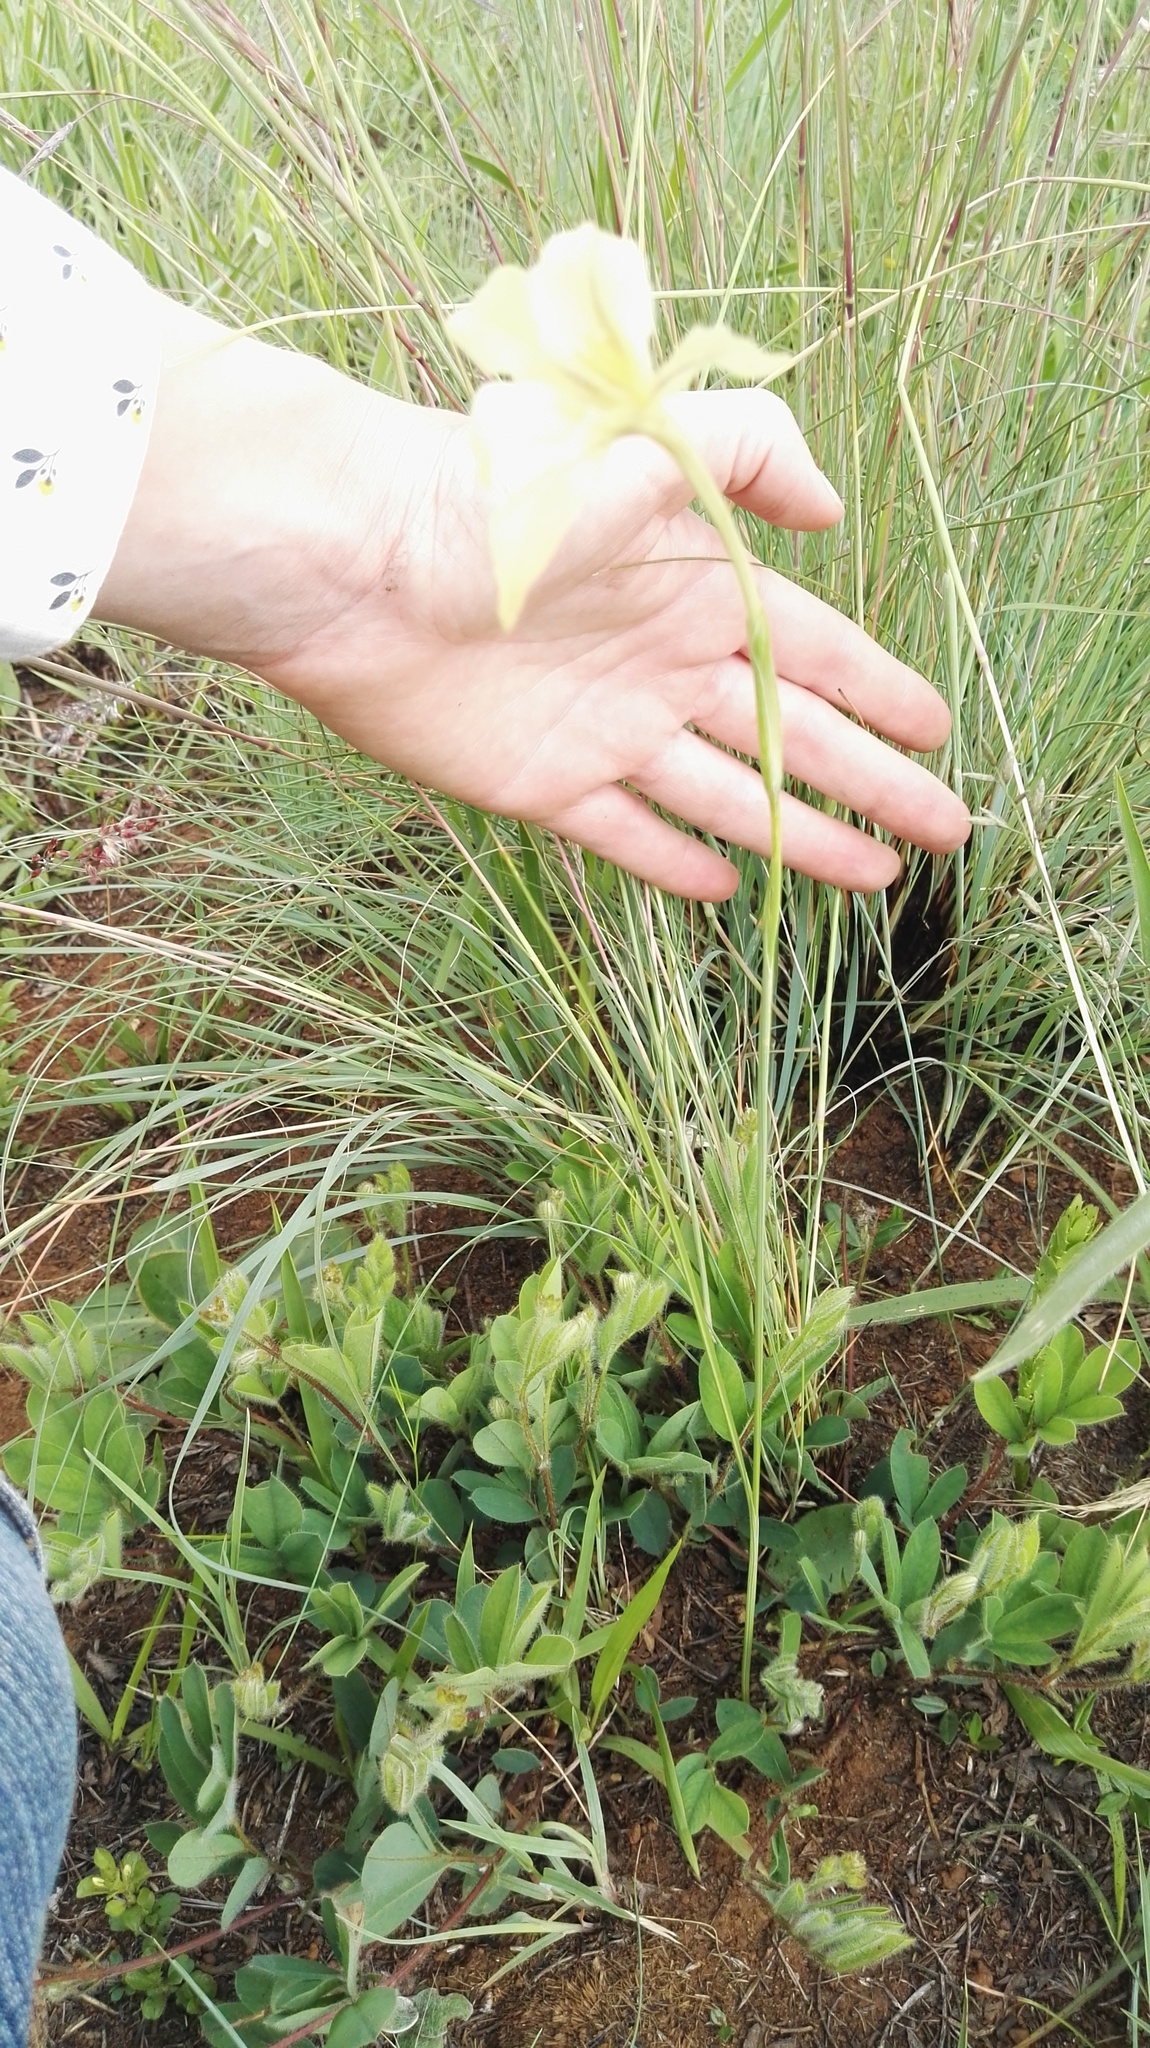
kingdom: Plantae
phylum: Tracheophyta
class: Liliopsida
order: Asparagales
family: Iridaceae
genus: Gladiolus
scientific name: Gladiolus longicollis
